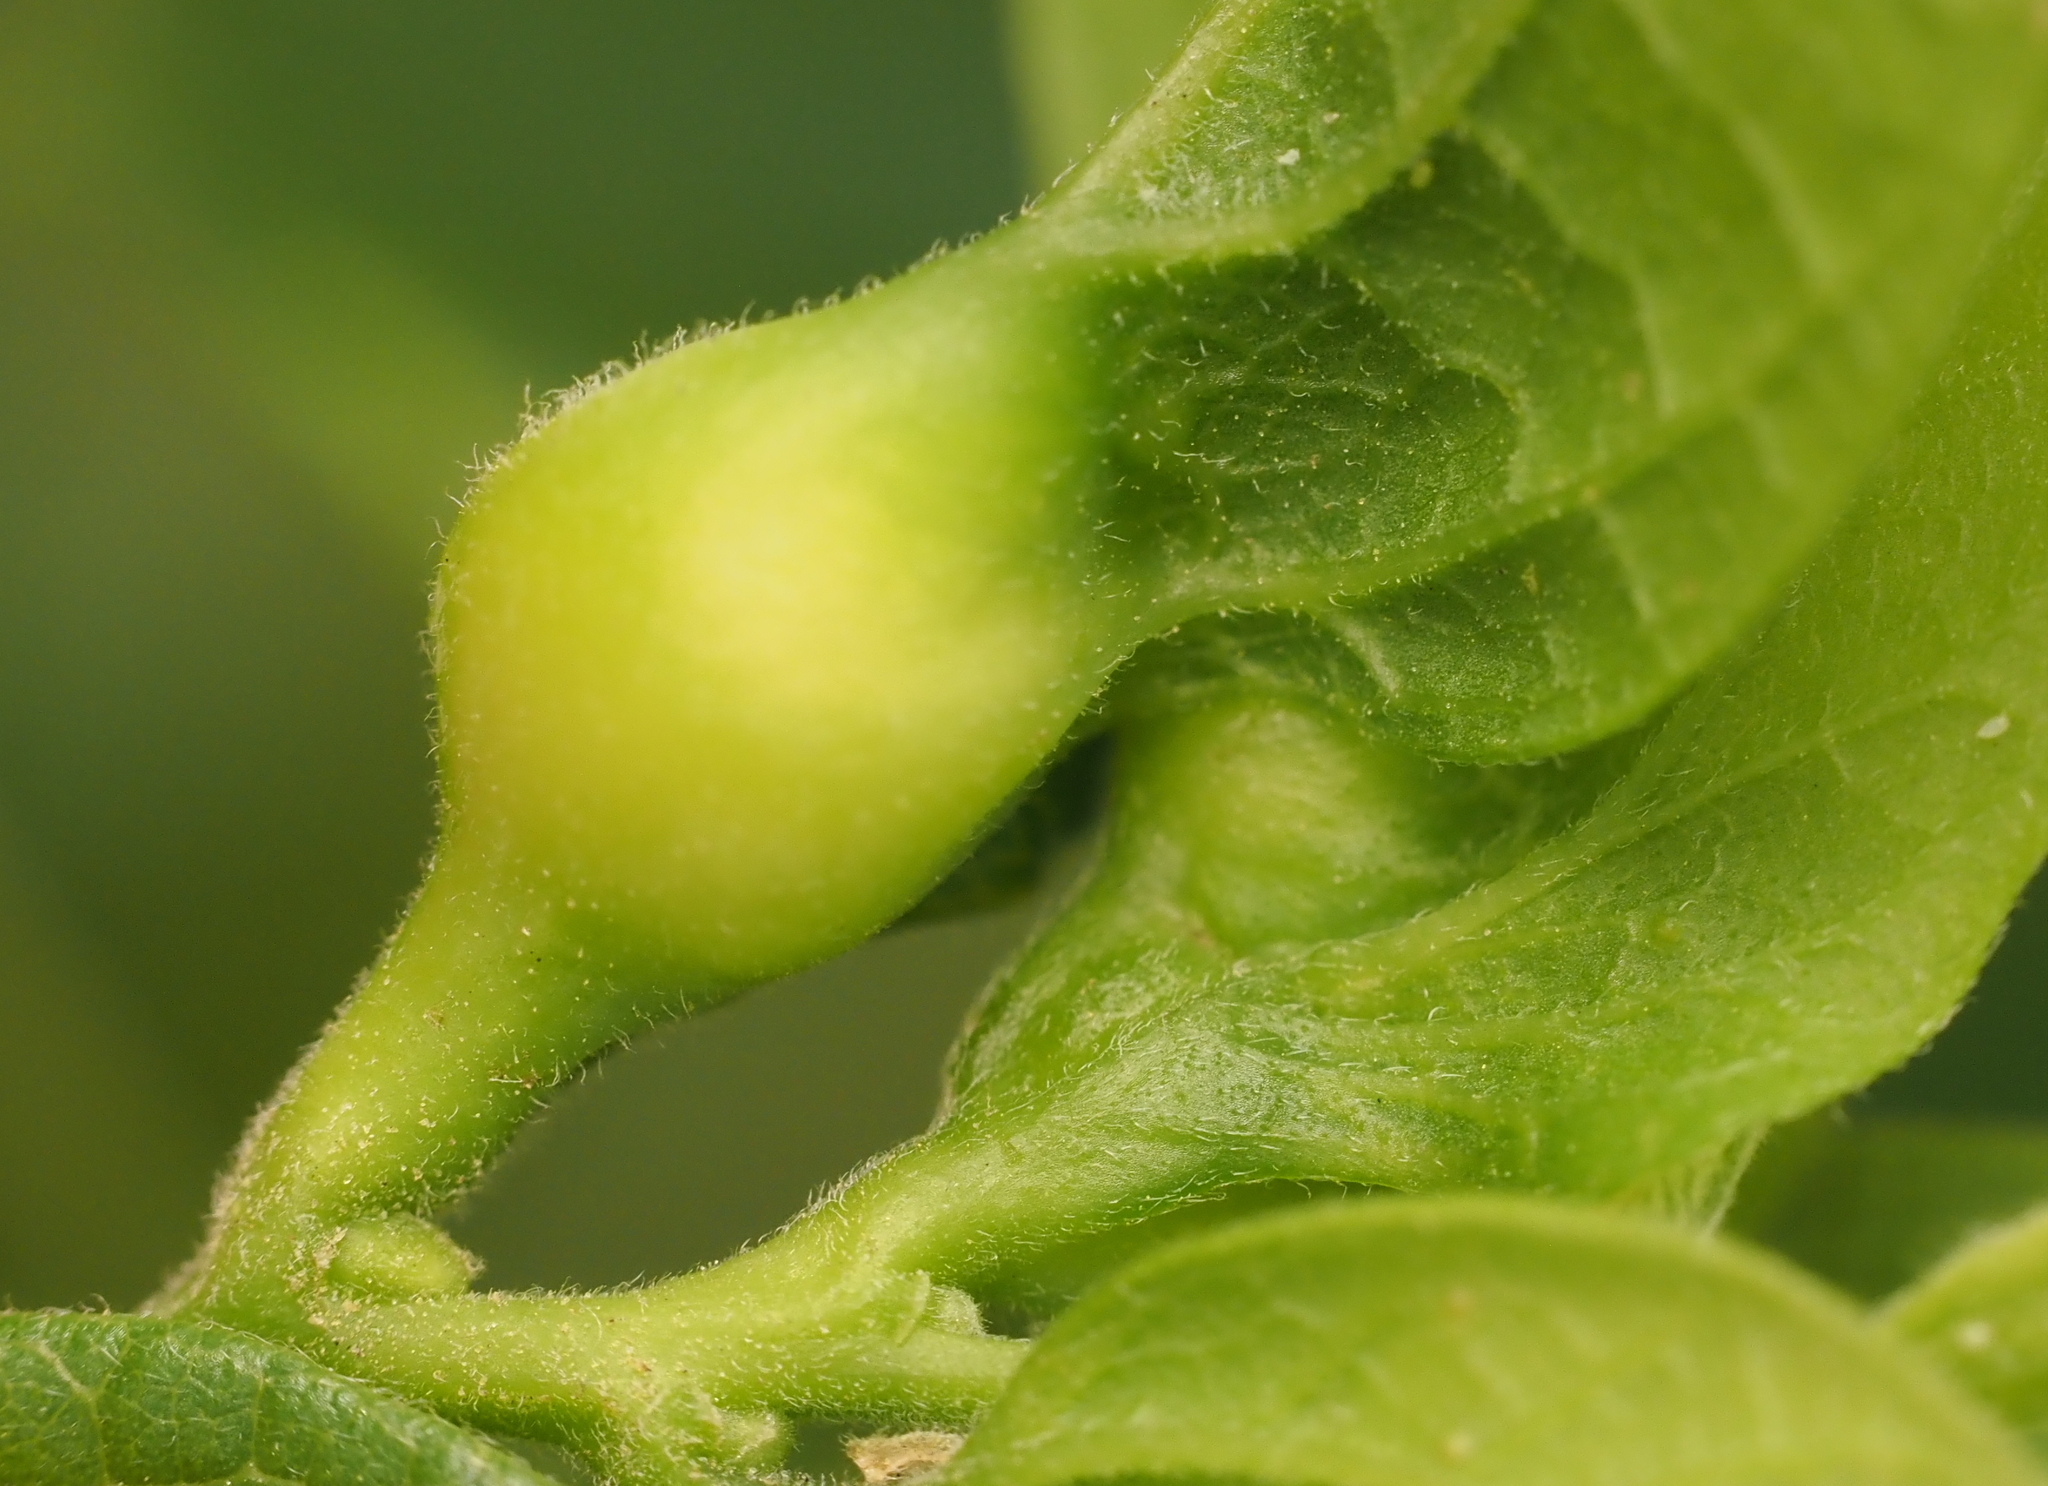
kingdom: Animalia
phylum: Arthropoda
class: Insecta
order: Hemiptera
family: Aphalaridae
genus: Pachypsylla
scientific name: Pachypsylla venusta
